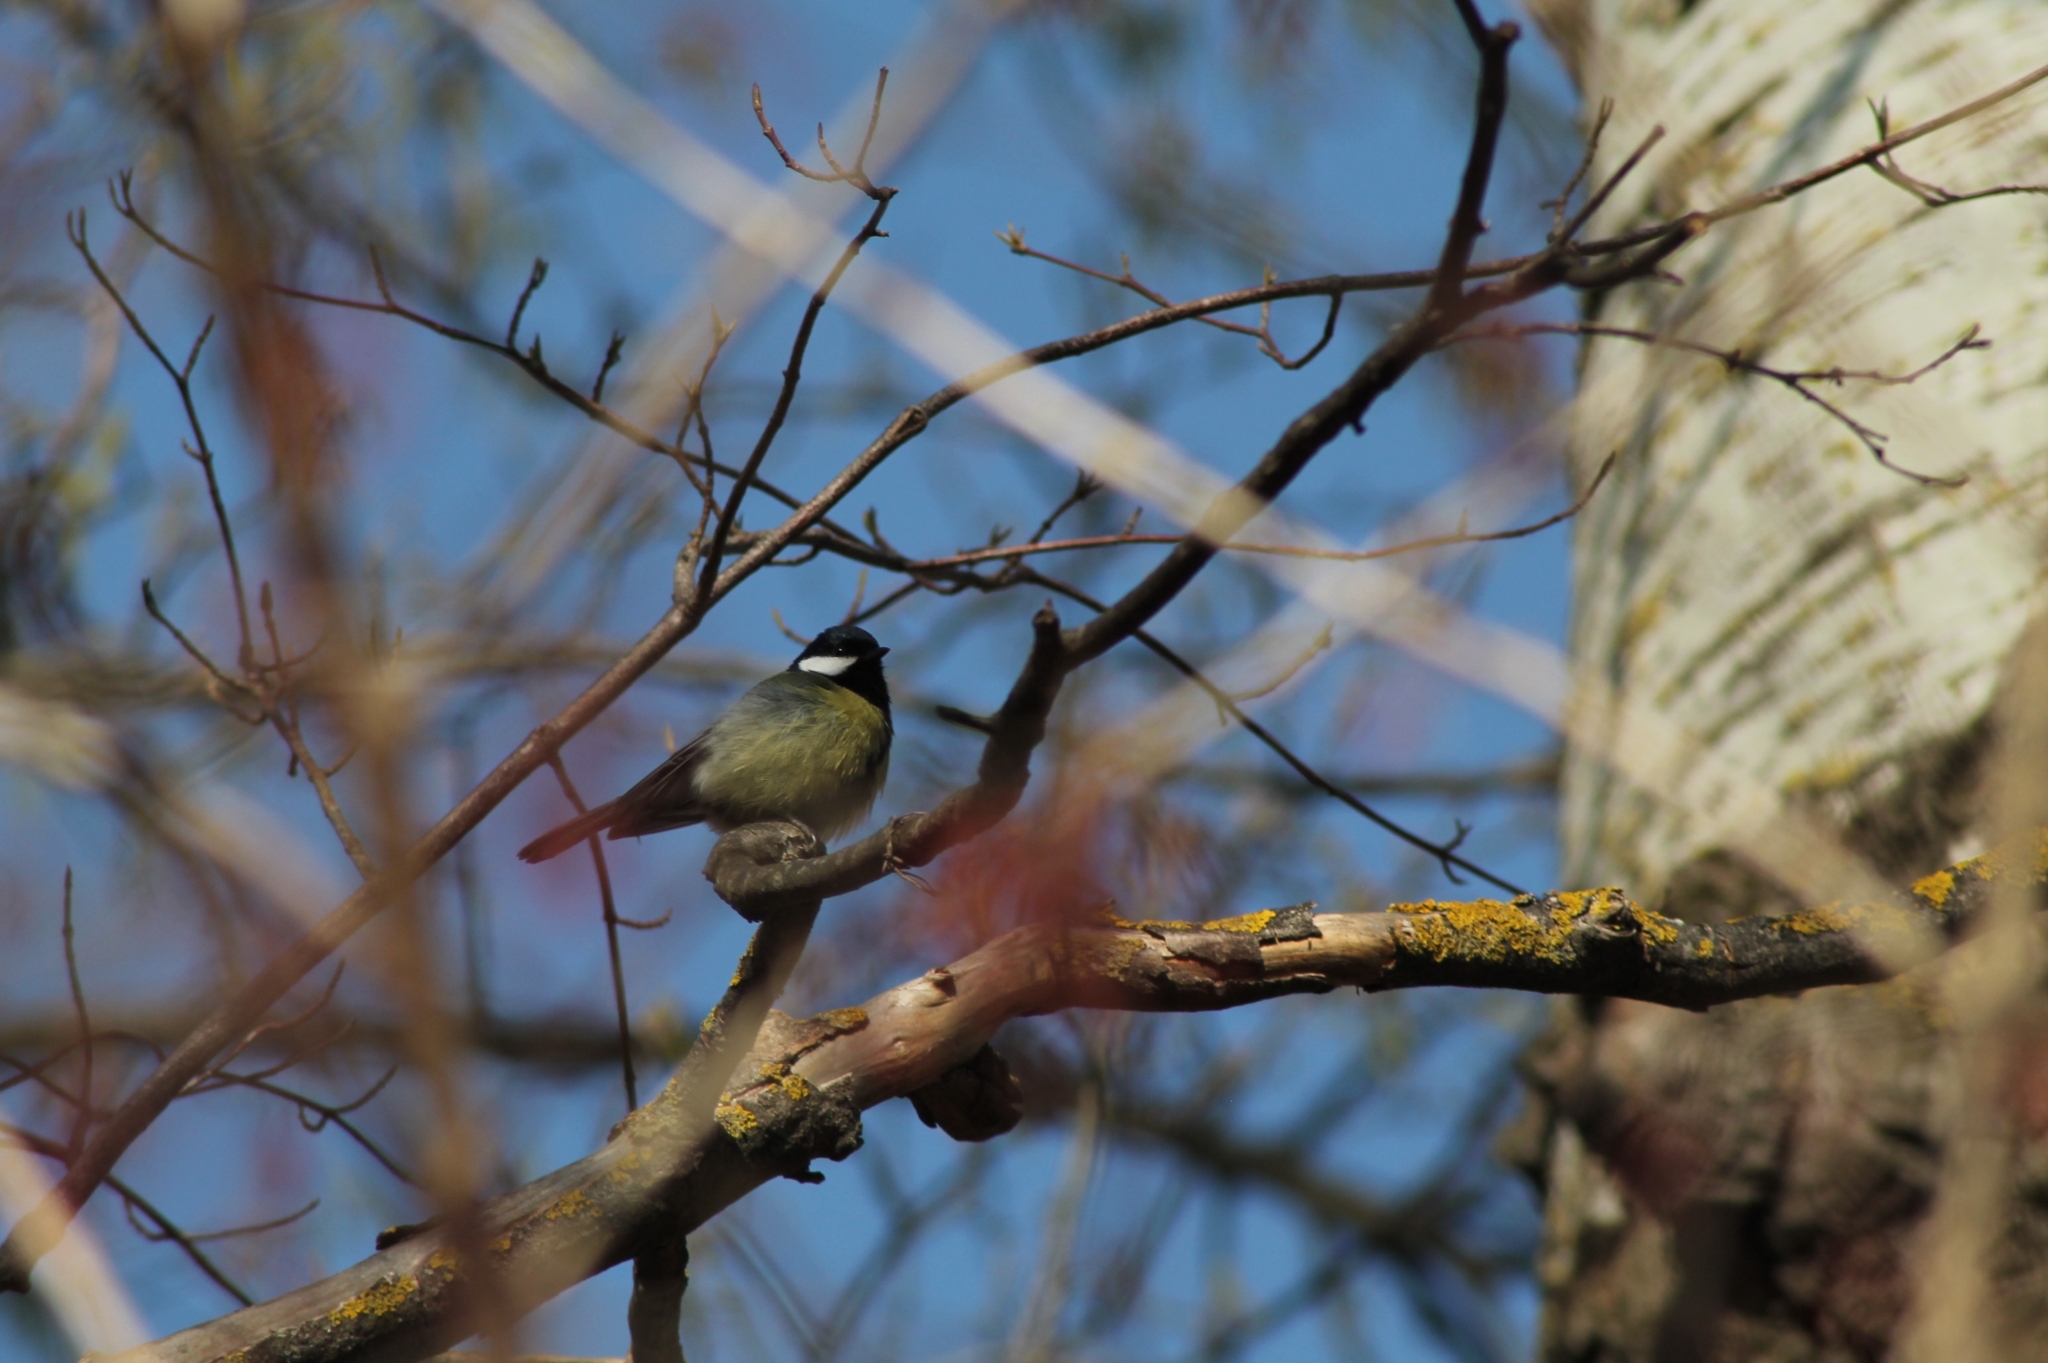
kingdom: Animalia
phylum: Chordata
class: Aves
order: Passeriformes
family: Paridae
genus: Parus
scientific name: Parus major
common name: Great tit
